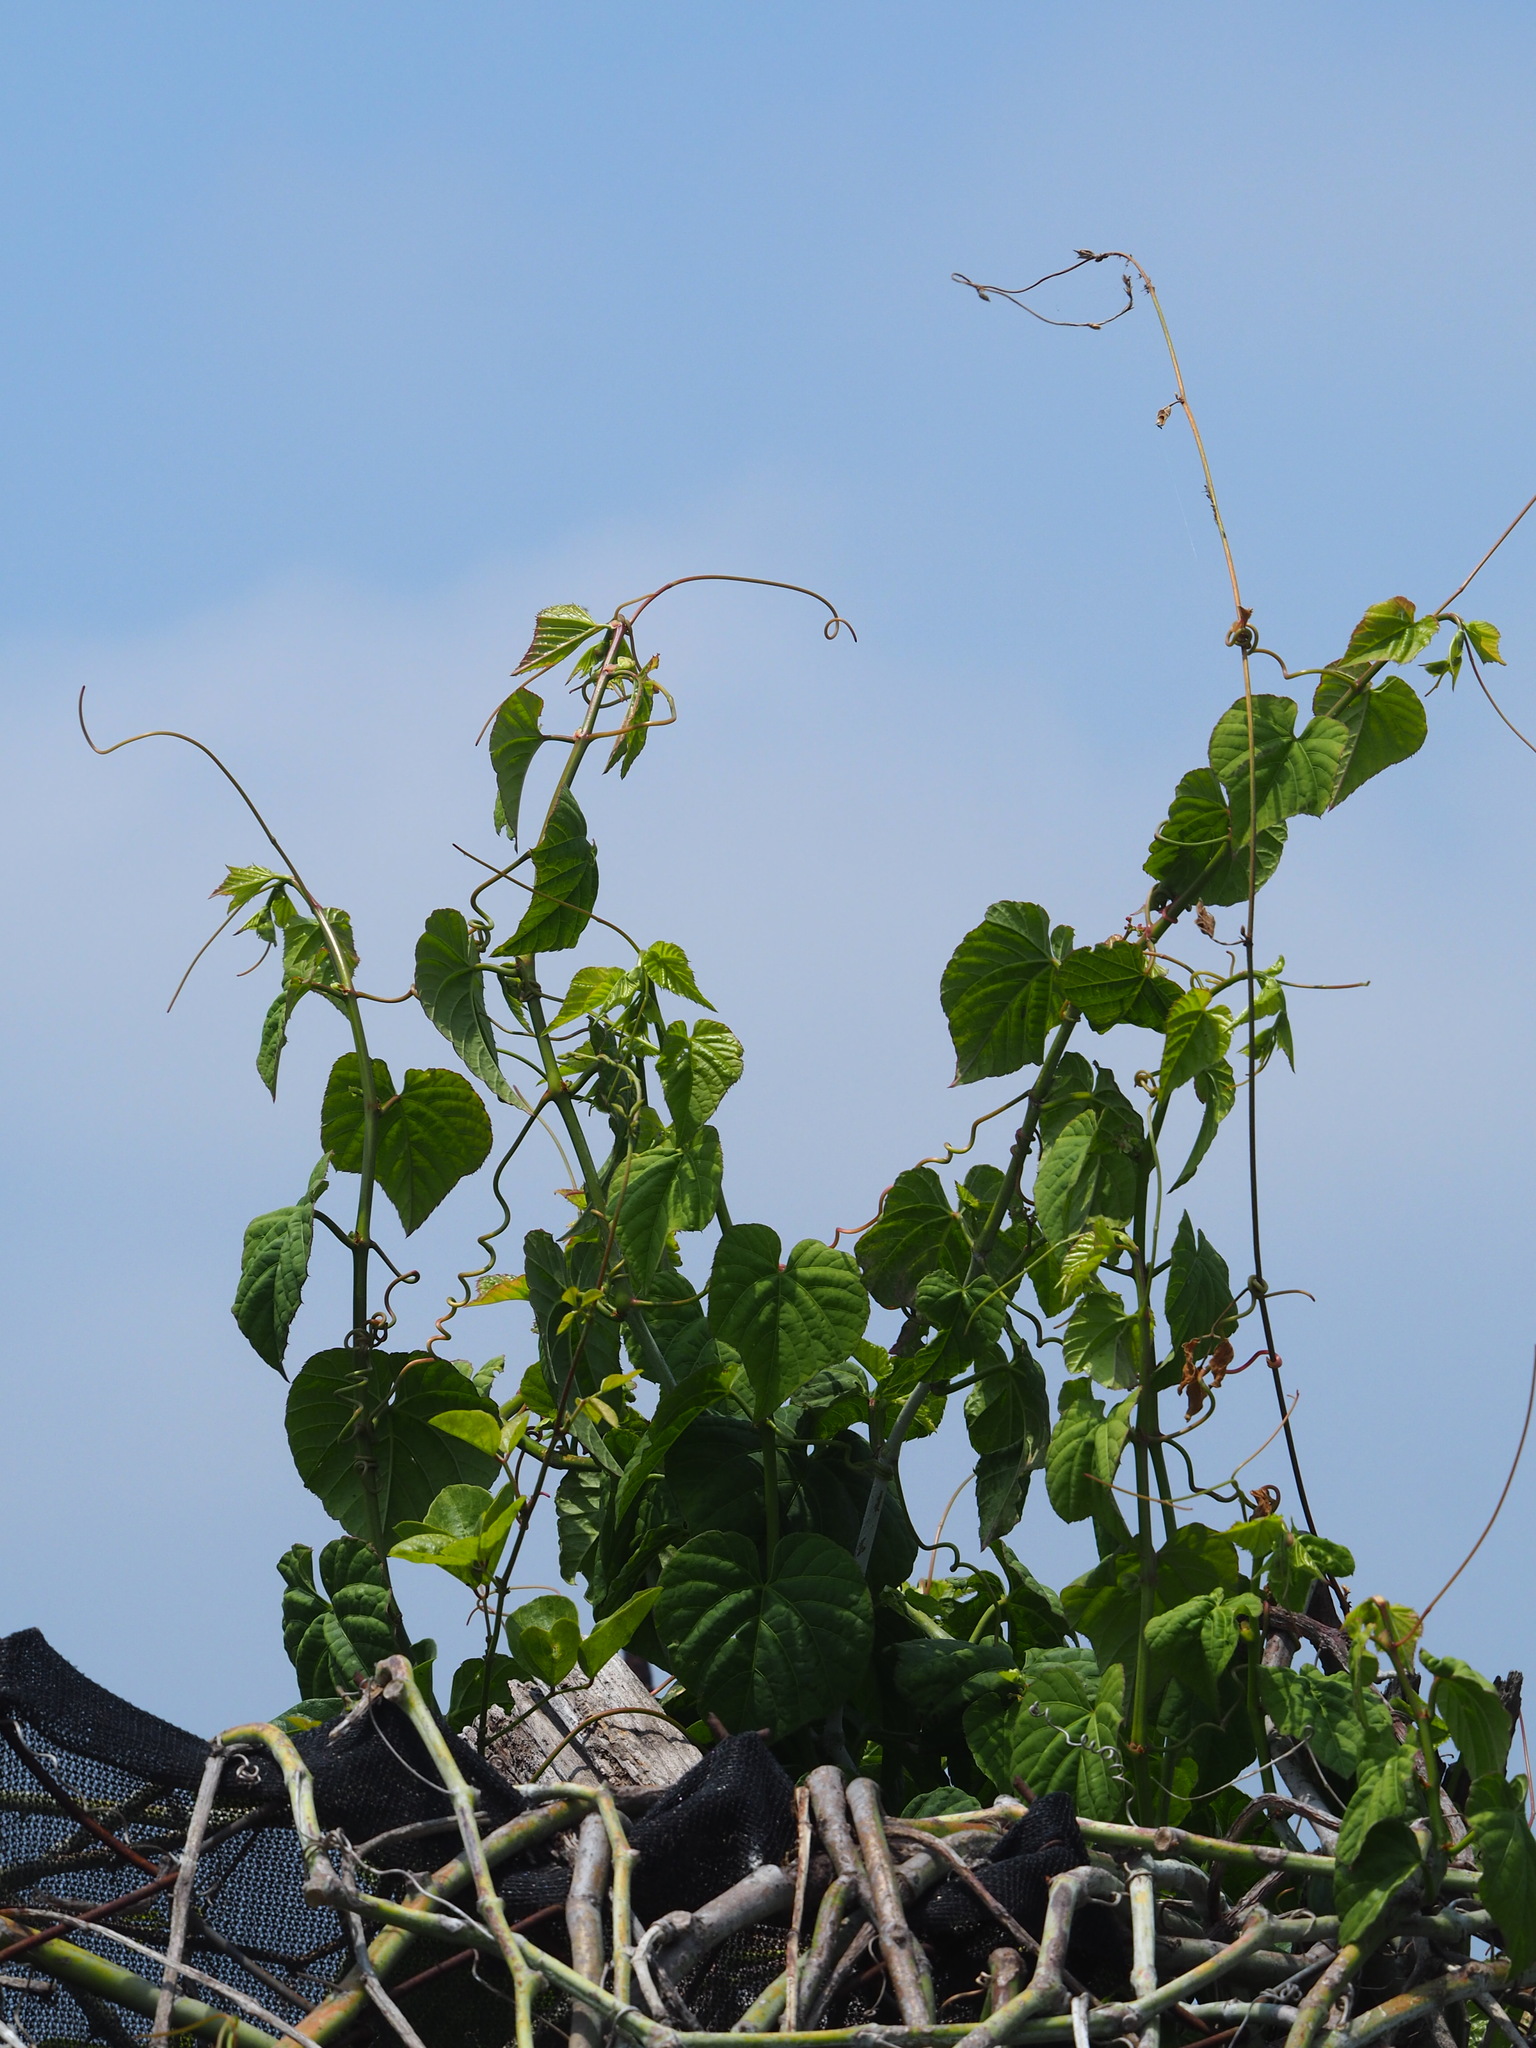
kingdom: Plantae
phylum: Tracheophyta
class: Magnoliopsida
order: Vitales
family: Vitaceae
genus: Cissus
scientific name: Cissus modeccoides
